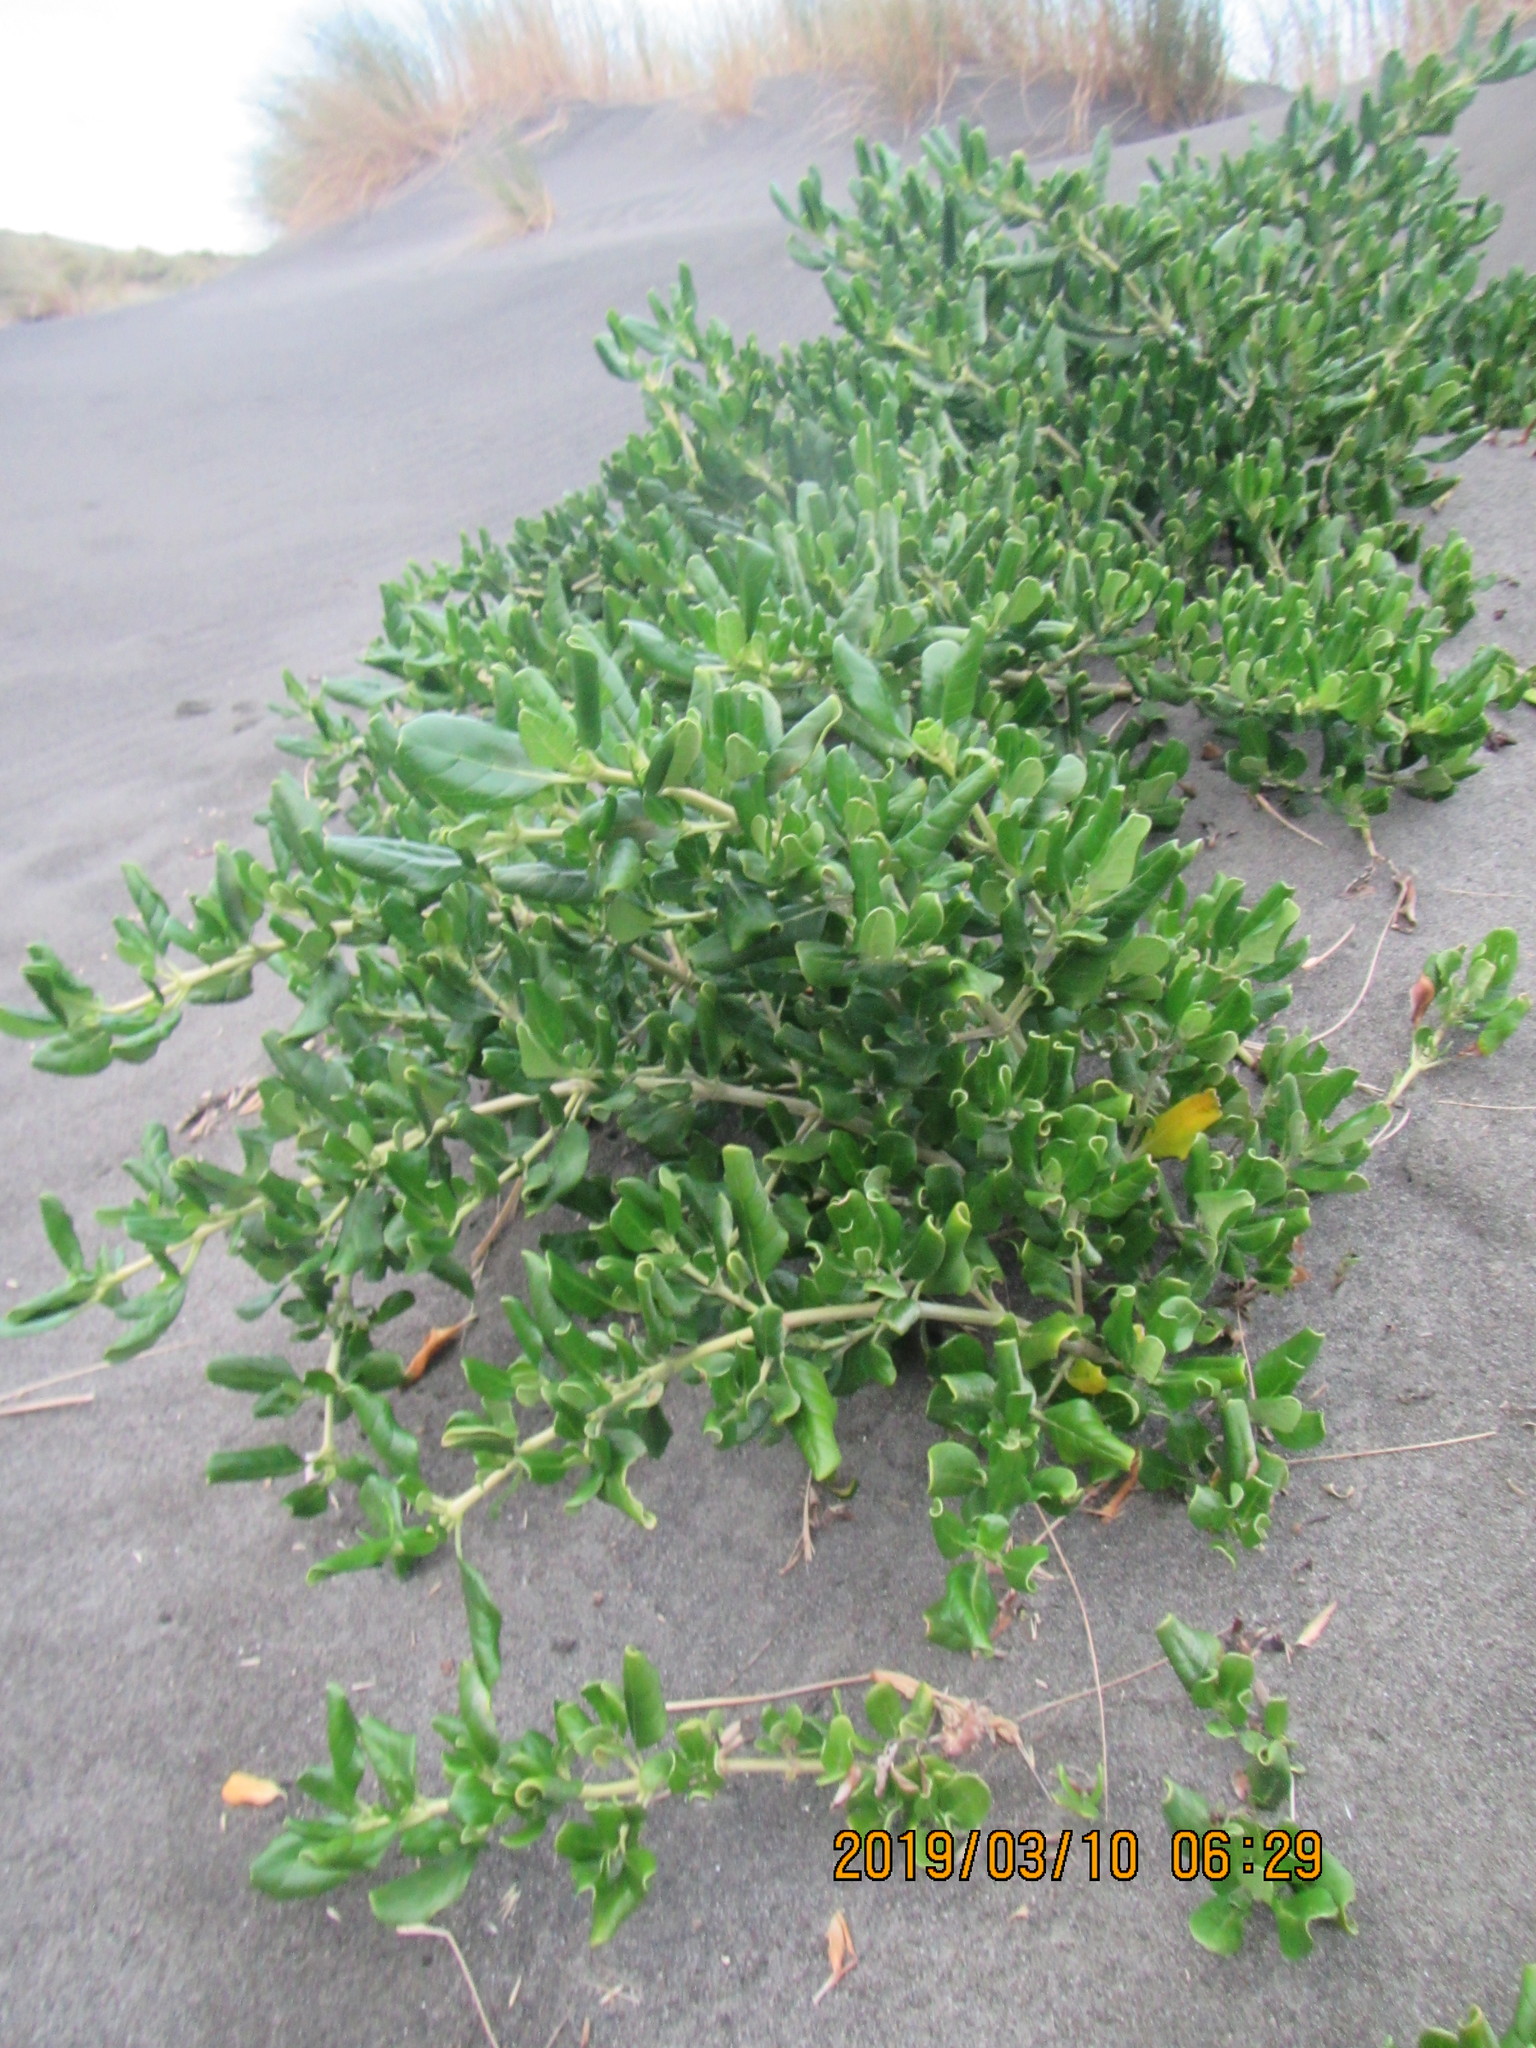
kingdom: Plantae
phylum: Tracheophyta
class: Magnoliopsida
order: Gentianales
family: Rubiaceae
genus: Coprosma
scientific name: Coprosma repens
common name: Tree bedstraw
